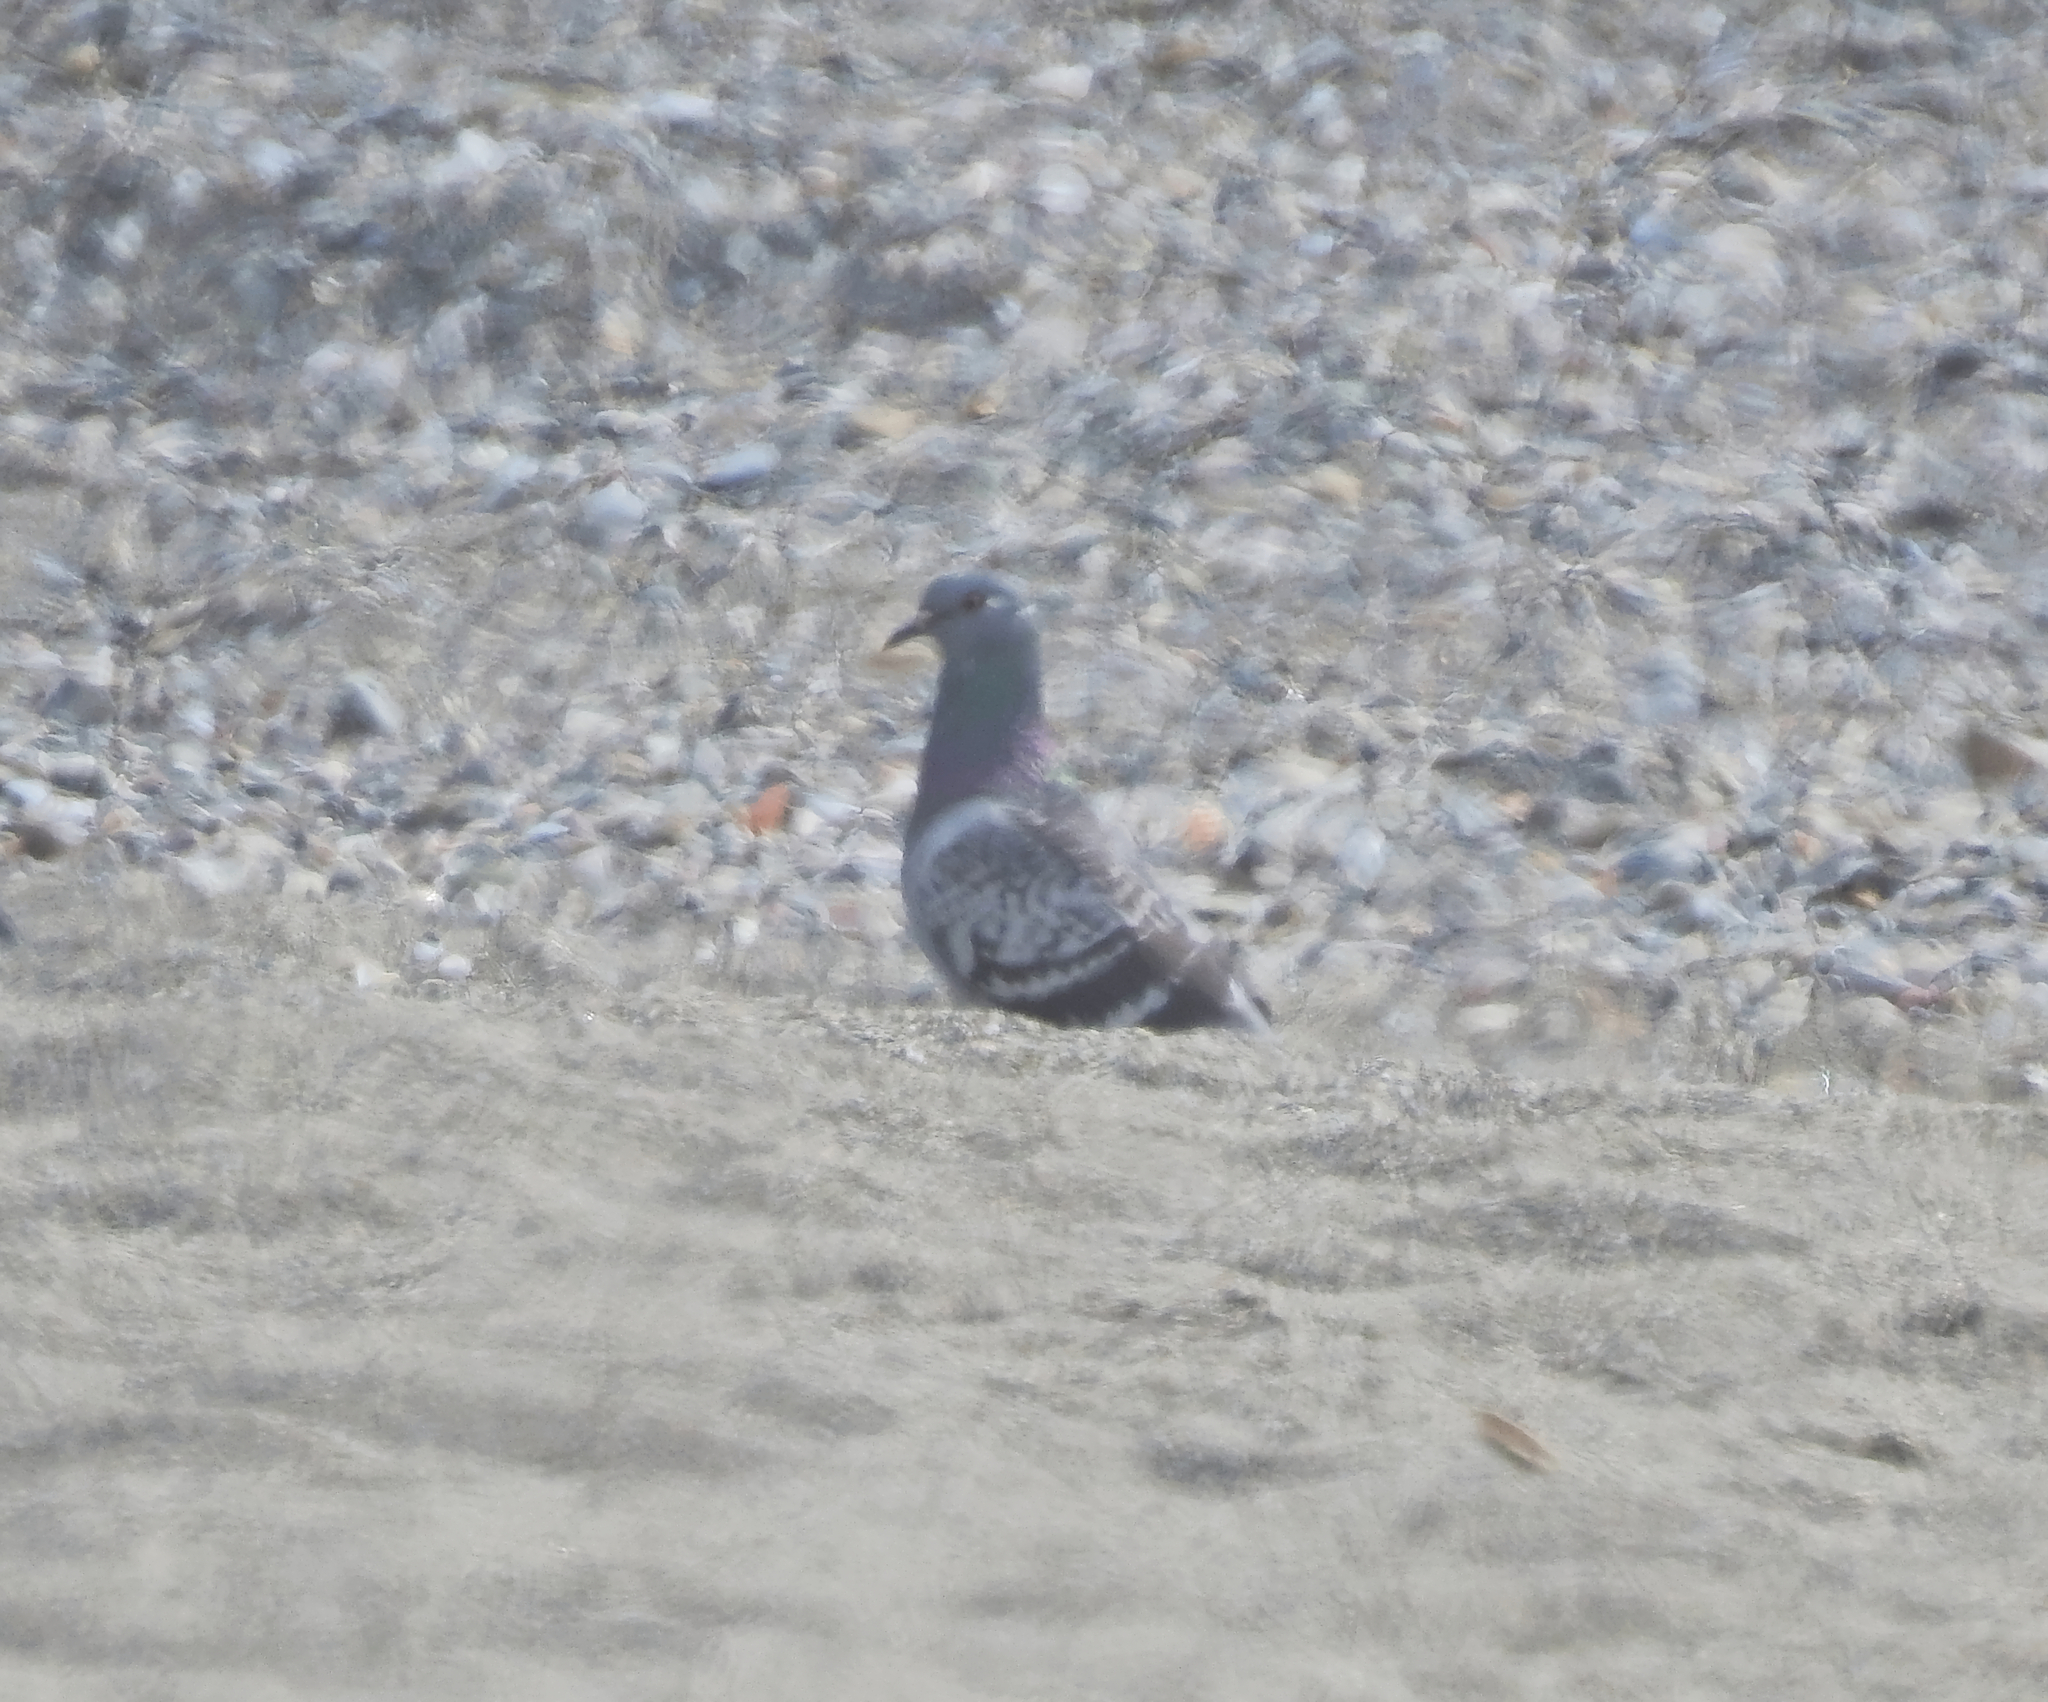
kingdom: Animalia
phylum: Chordata
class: Aves
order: Columbiformes
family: Columbidae
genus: Columba
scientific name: Columba livia
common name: Rock pigeon
